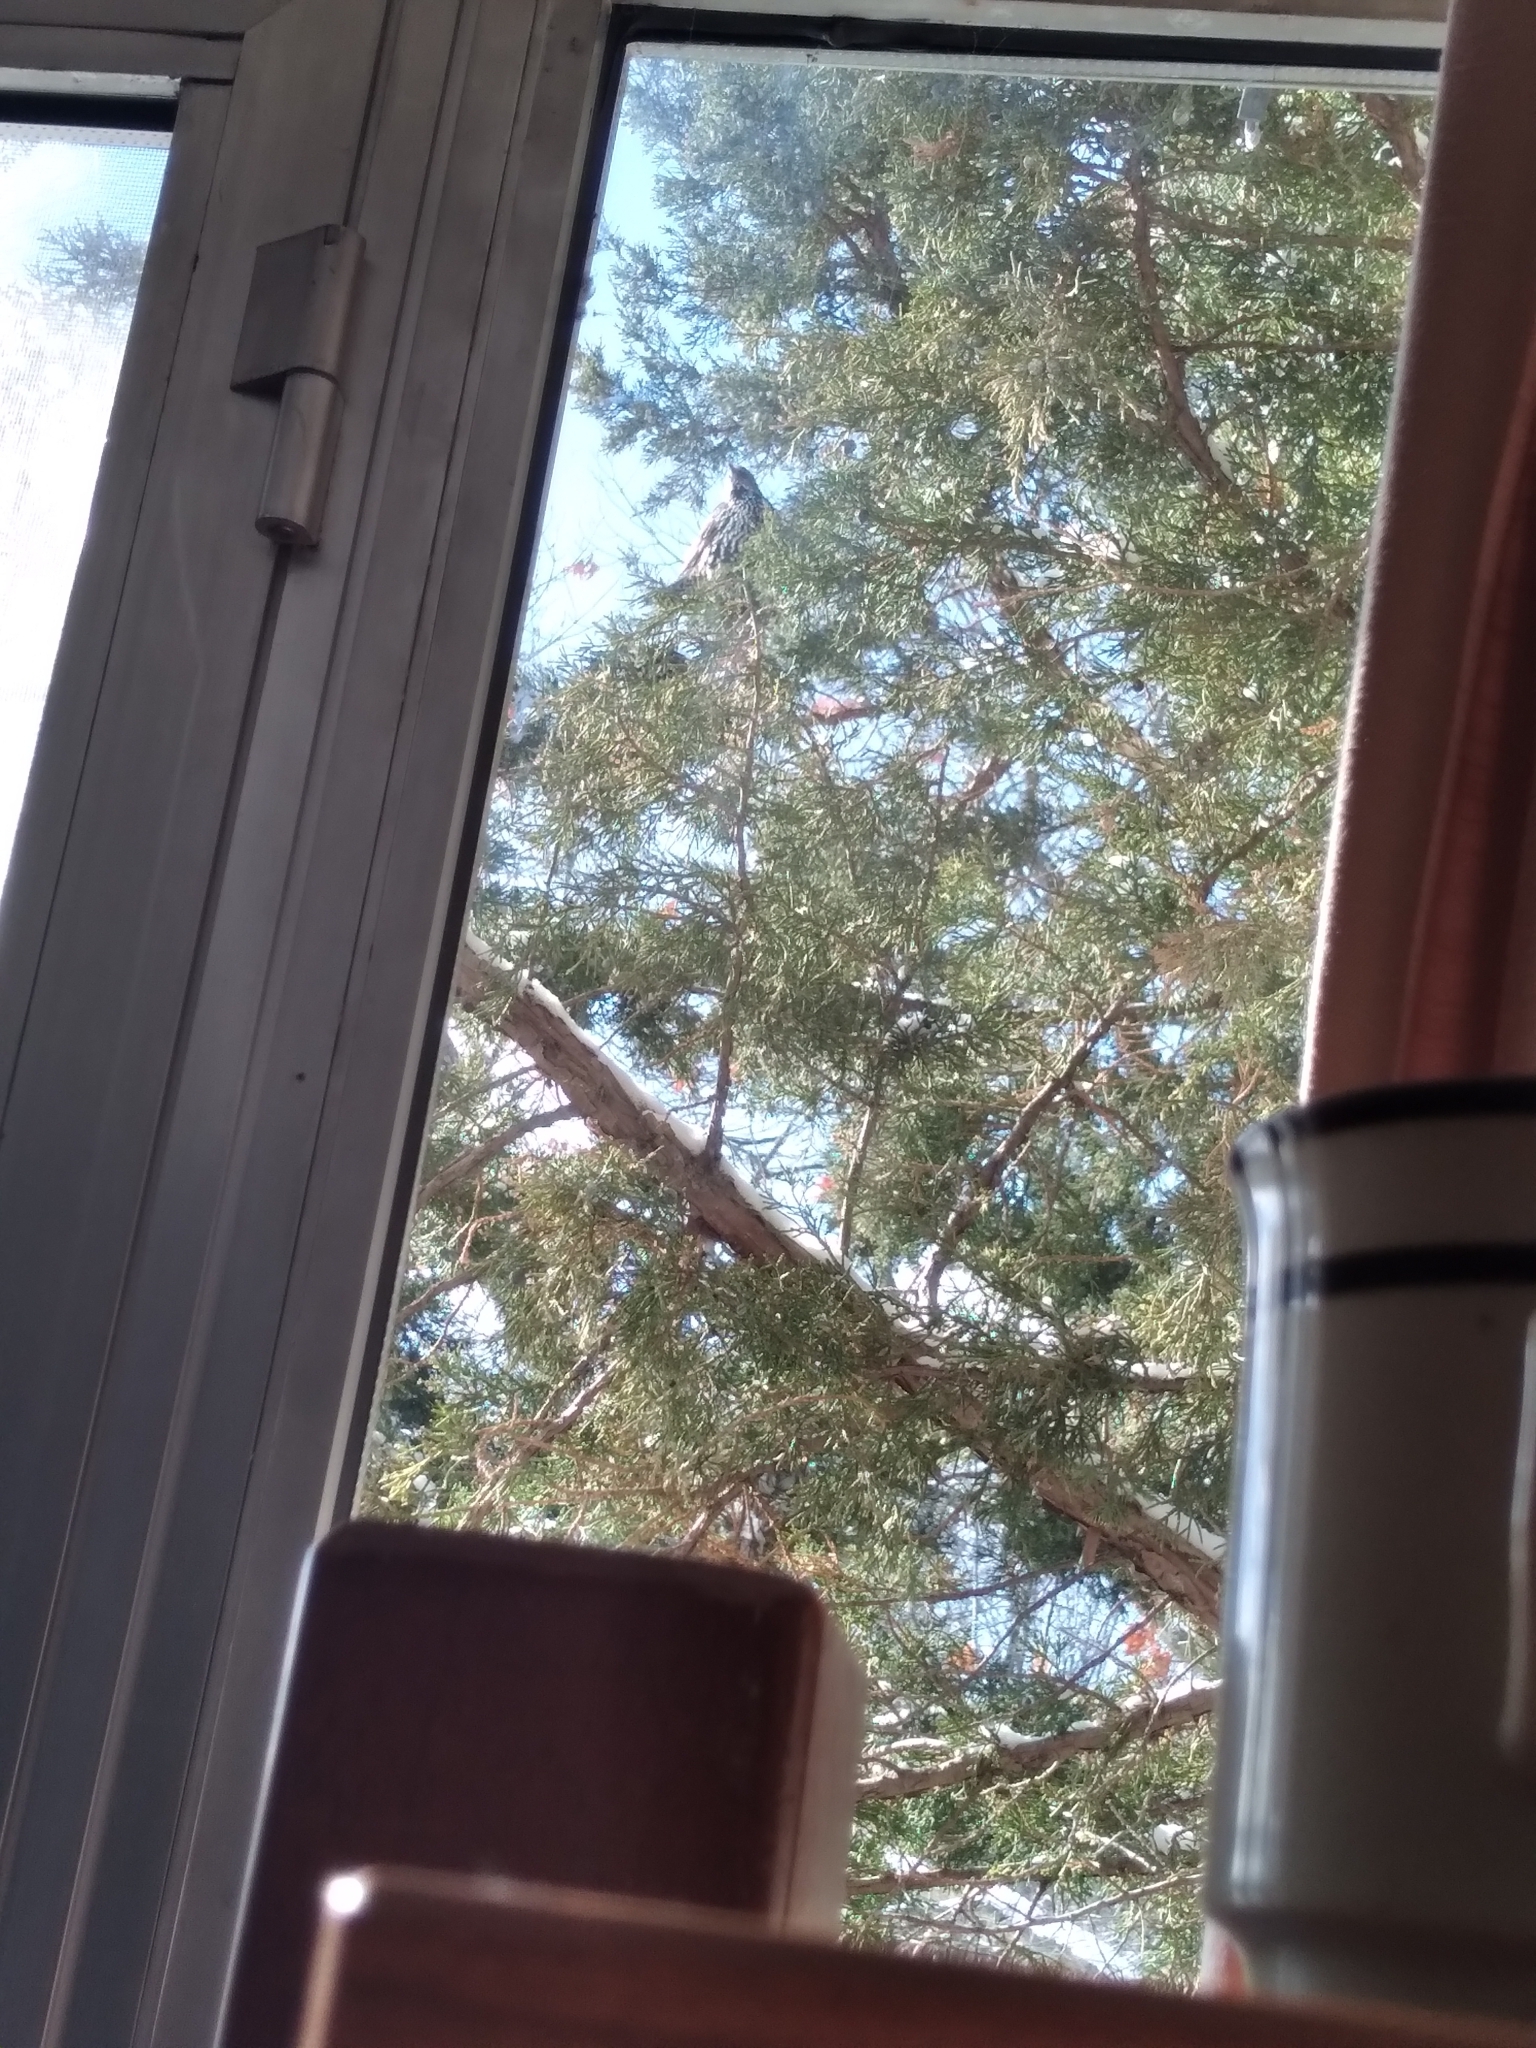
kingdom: Animalia
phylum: Chordata
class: Aves
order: Passeriformes
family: Sturnidae
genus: Sturnus
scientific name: Sturnus vulgaris
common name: Common starling
